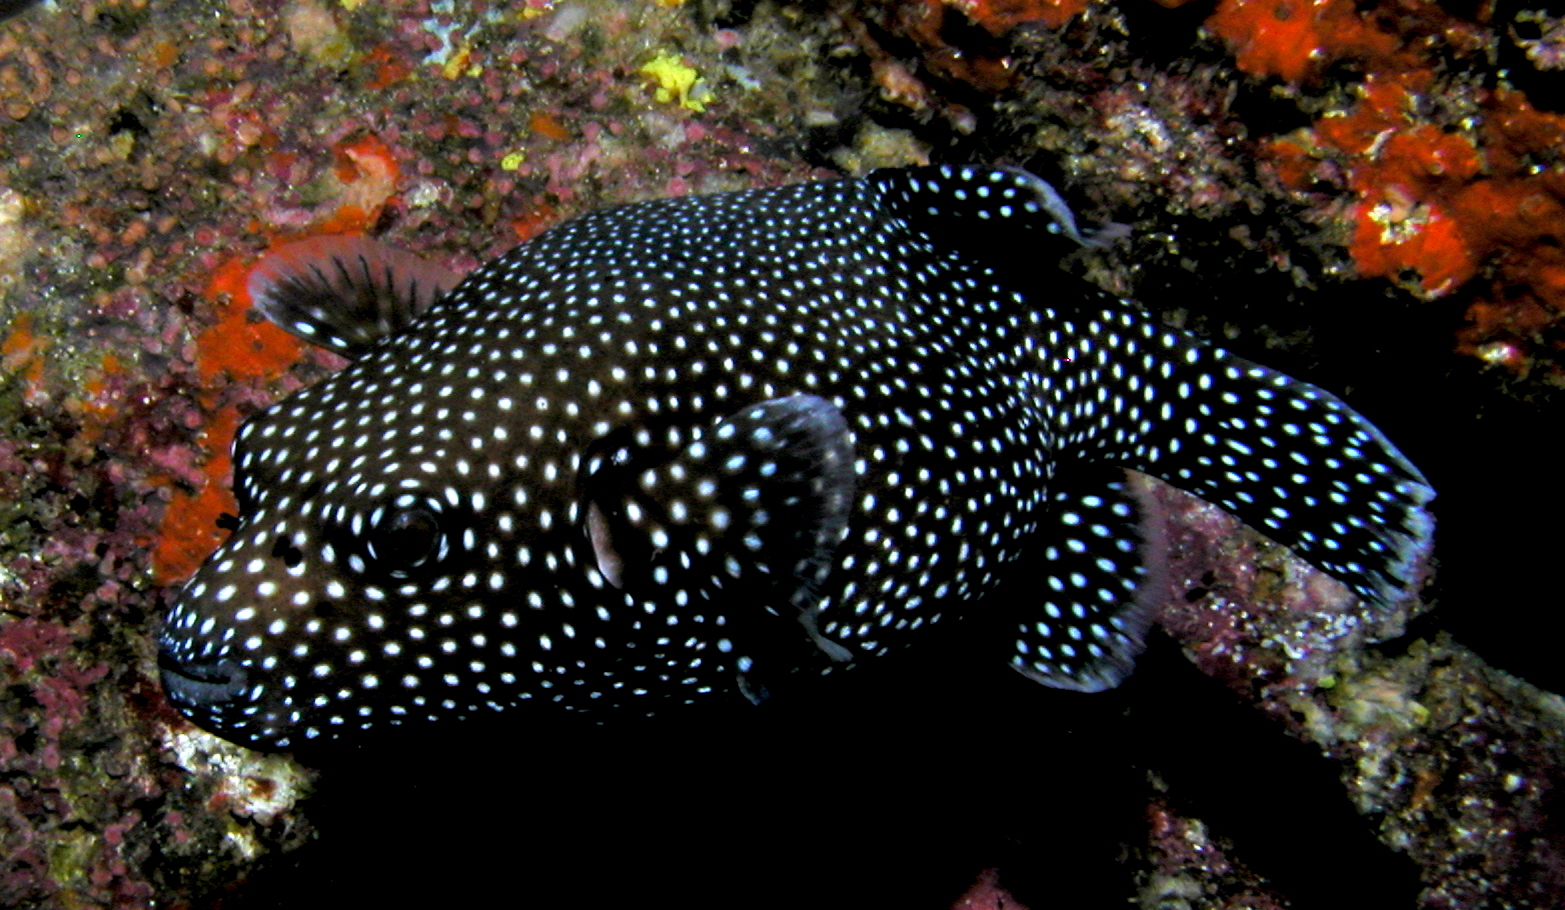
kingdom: Animalia
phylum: Chordata
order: Tetraodontiformes
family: Tetraodontidae
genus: Arothron
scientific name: Arothron meleagris
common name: Guinea-fowl pufferfish
